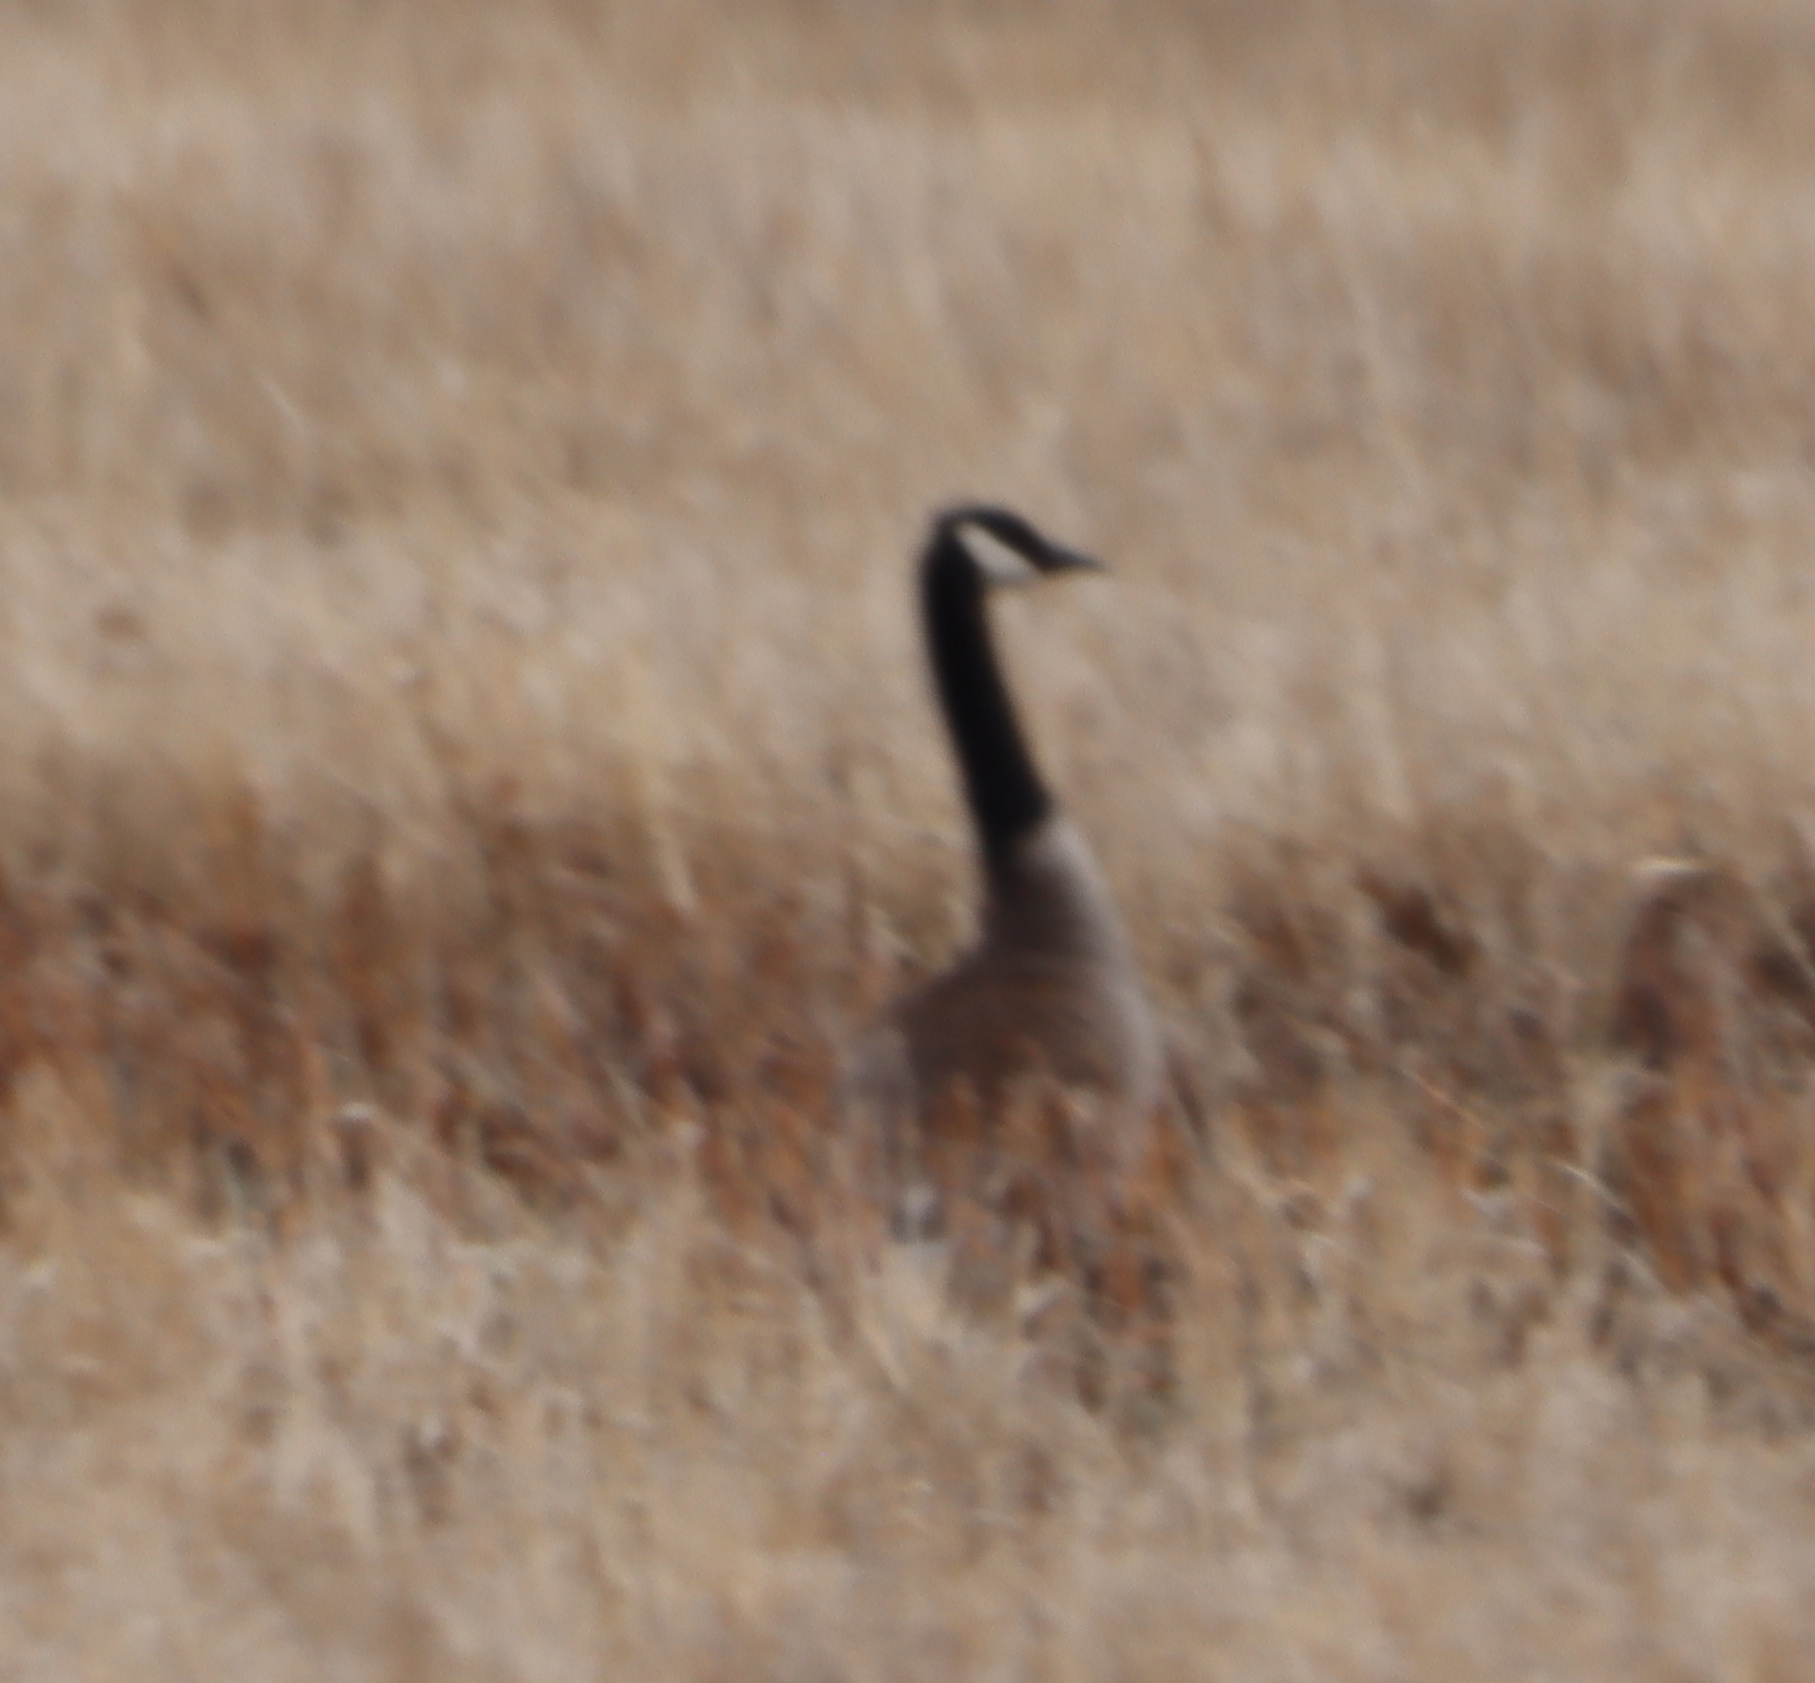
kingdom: Animalia
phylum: Chordata
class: Aves
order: Anseriformes
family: Anatidae
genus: Branta
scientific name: Branta canadensis
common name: Canada goose
